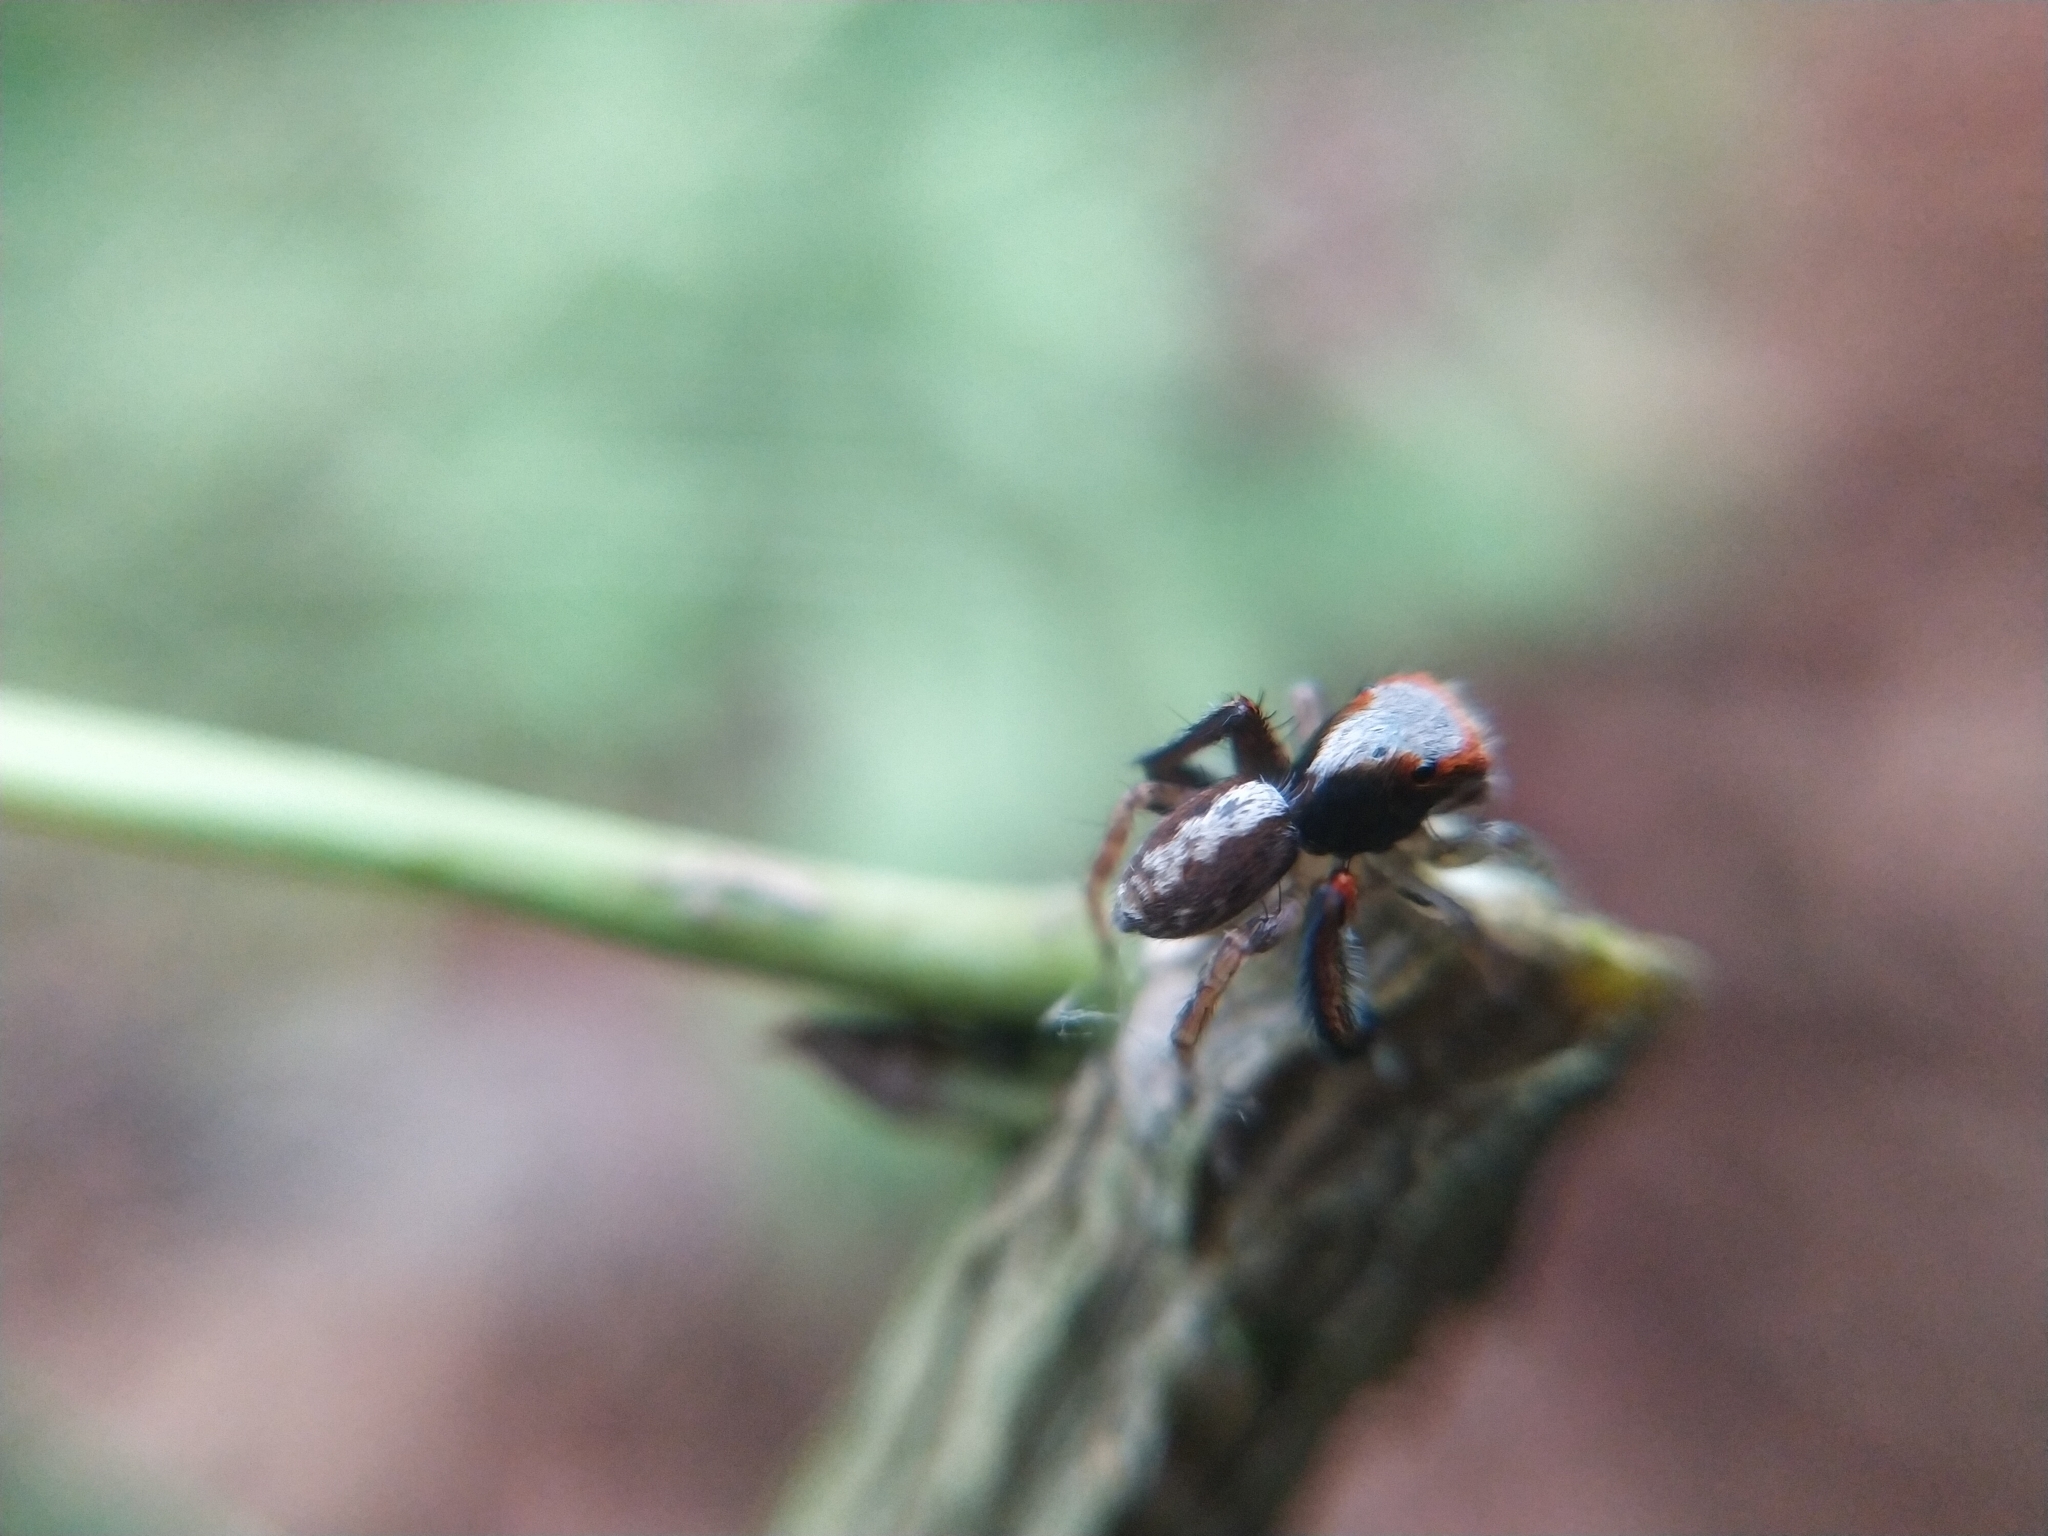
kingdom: Animalia
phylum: Arthropoda
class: Arachnida
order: Araneae
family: Salticidae
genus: Saitis
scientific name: Saitis barbipes
